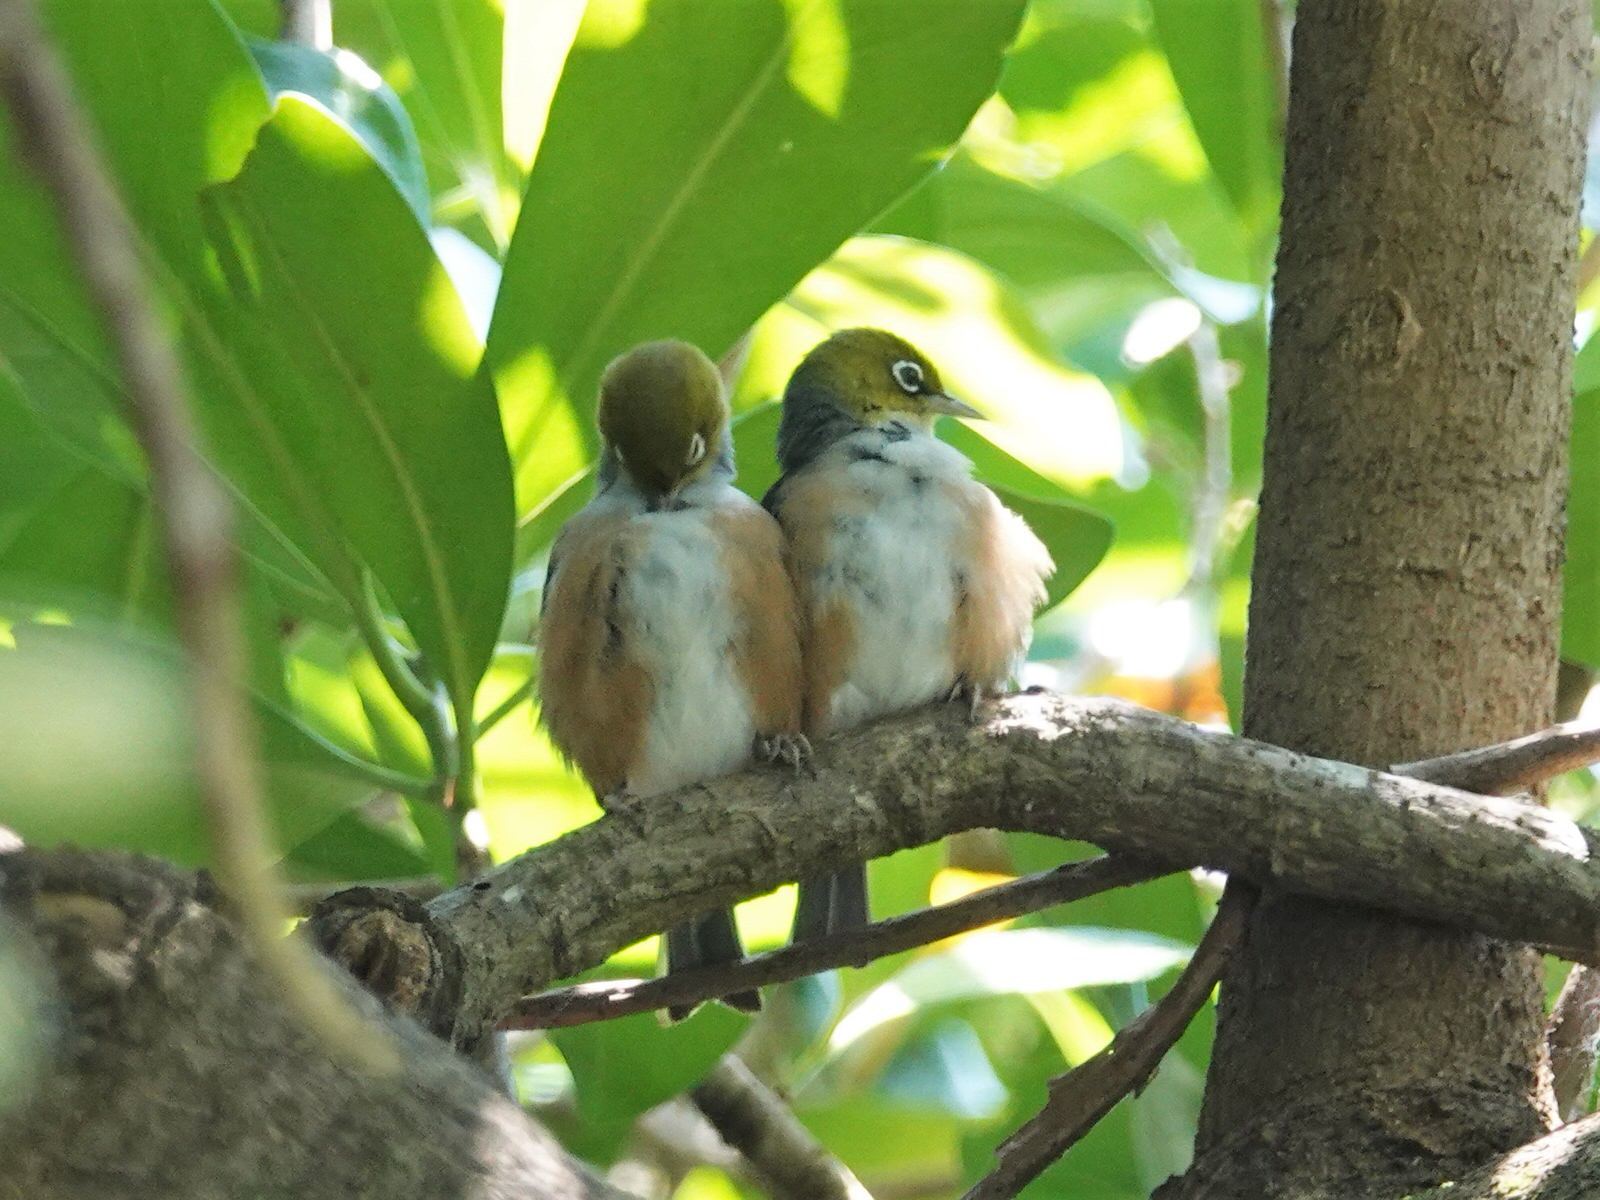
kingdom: Animalia
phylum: Chordata
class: Aves
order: Passeriformes
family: Zosteropidae
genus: Zosterops
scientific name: Zosterops lateralis
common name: Silvereye
